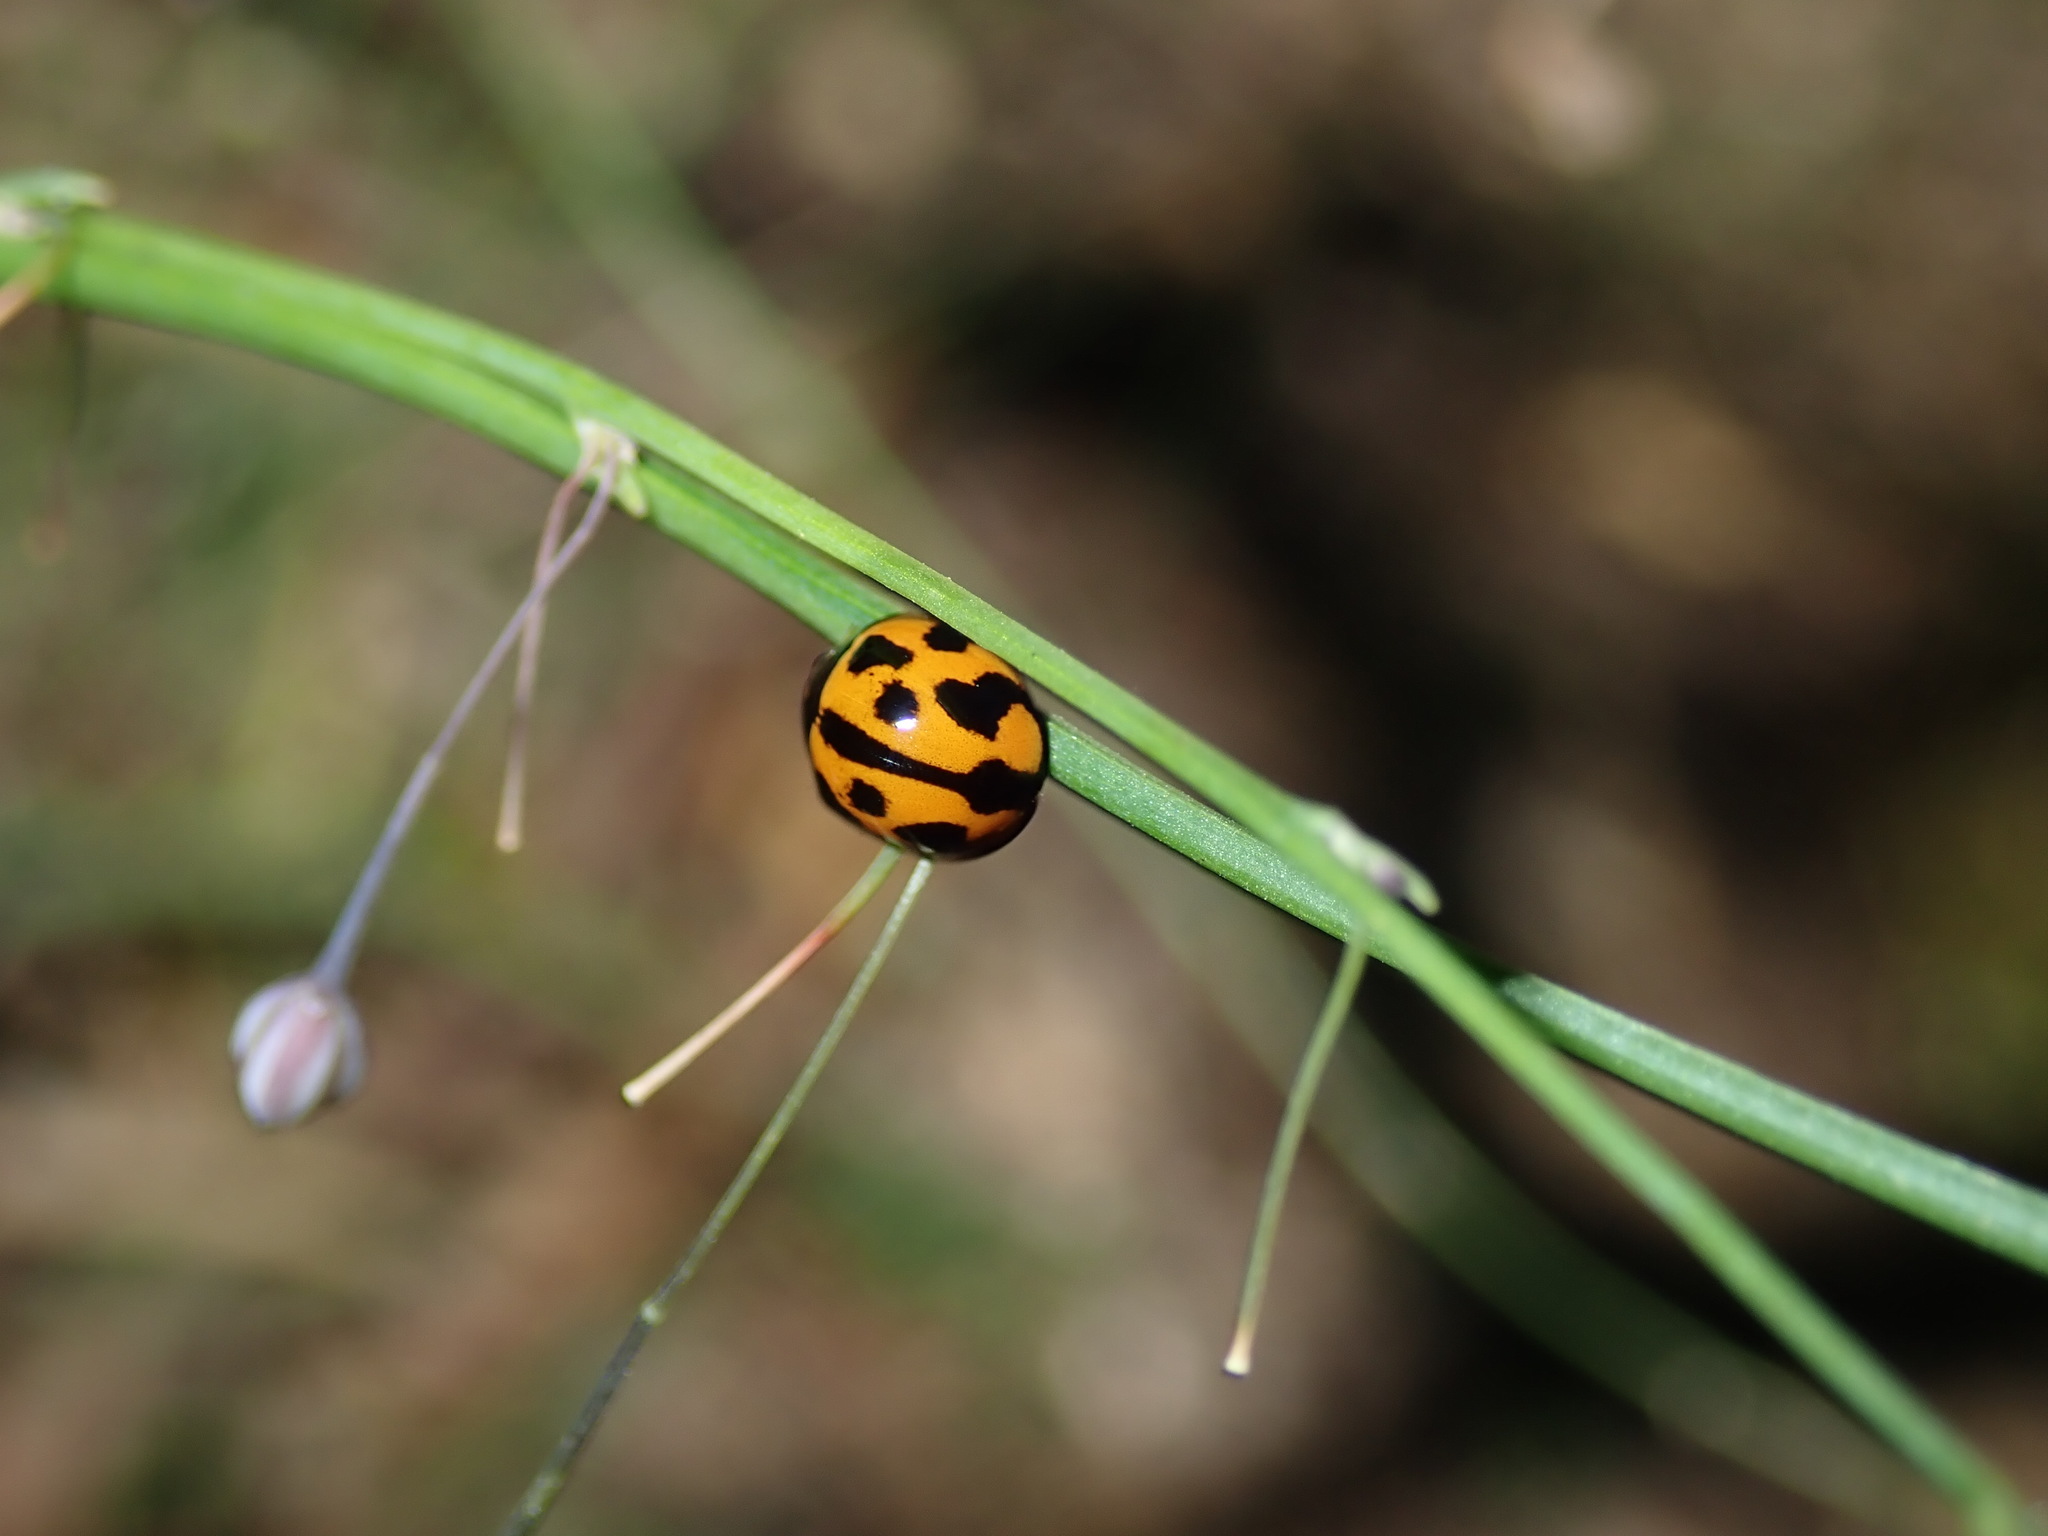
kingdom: Animalia
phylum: Arthropoda
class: Insecta
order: Coleoptera
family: Coccinellidae
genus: Coelophora
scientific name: Coelophora inaequalis
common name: Common australian lady beetle
